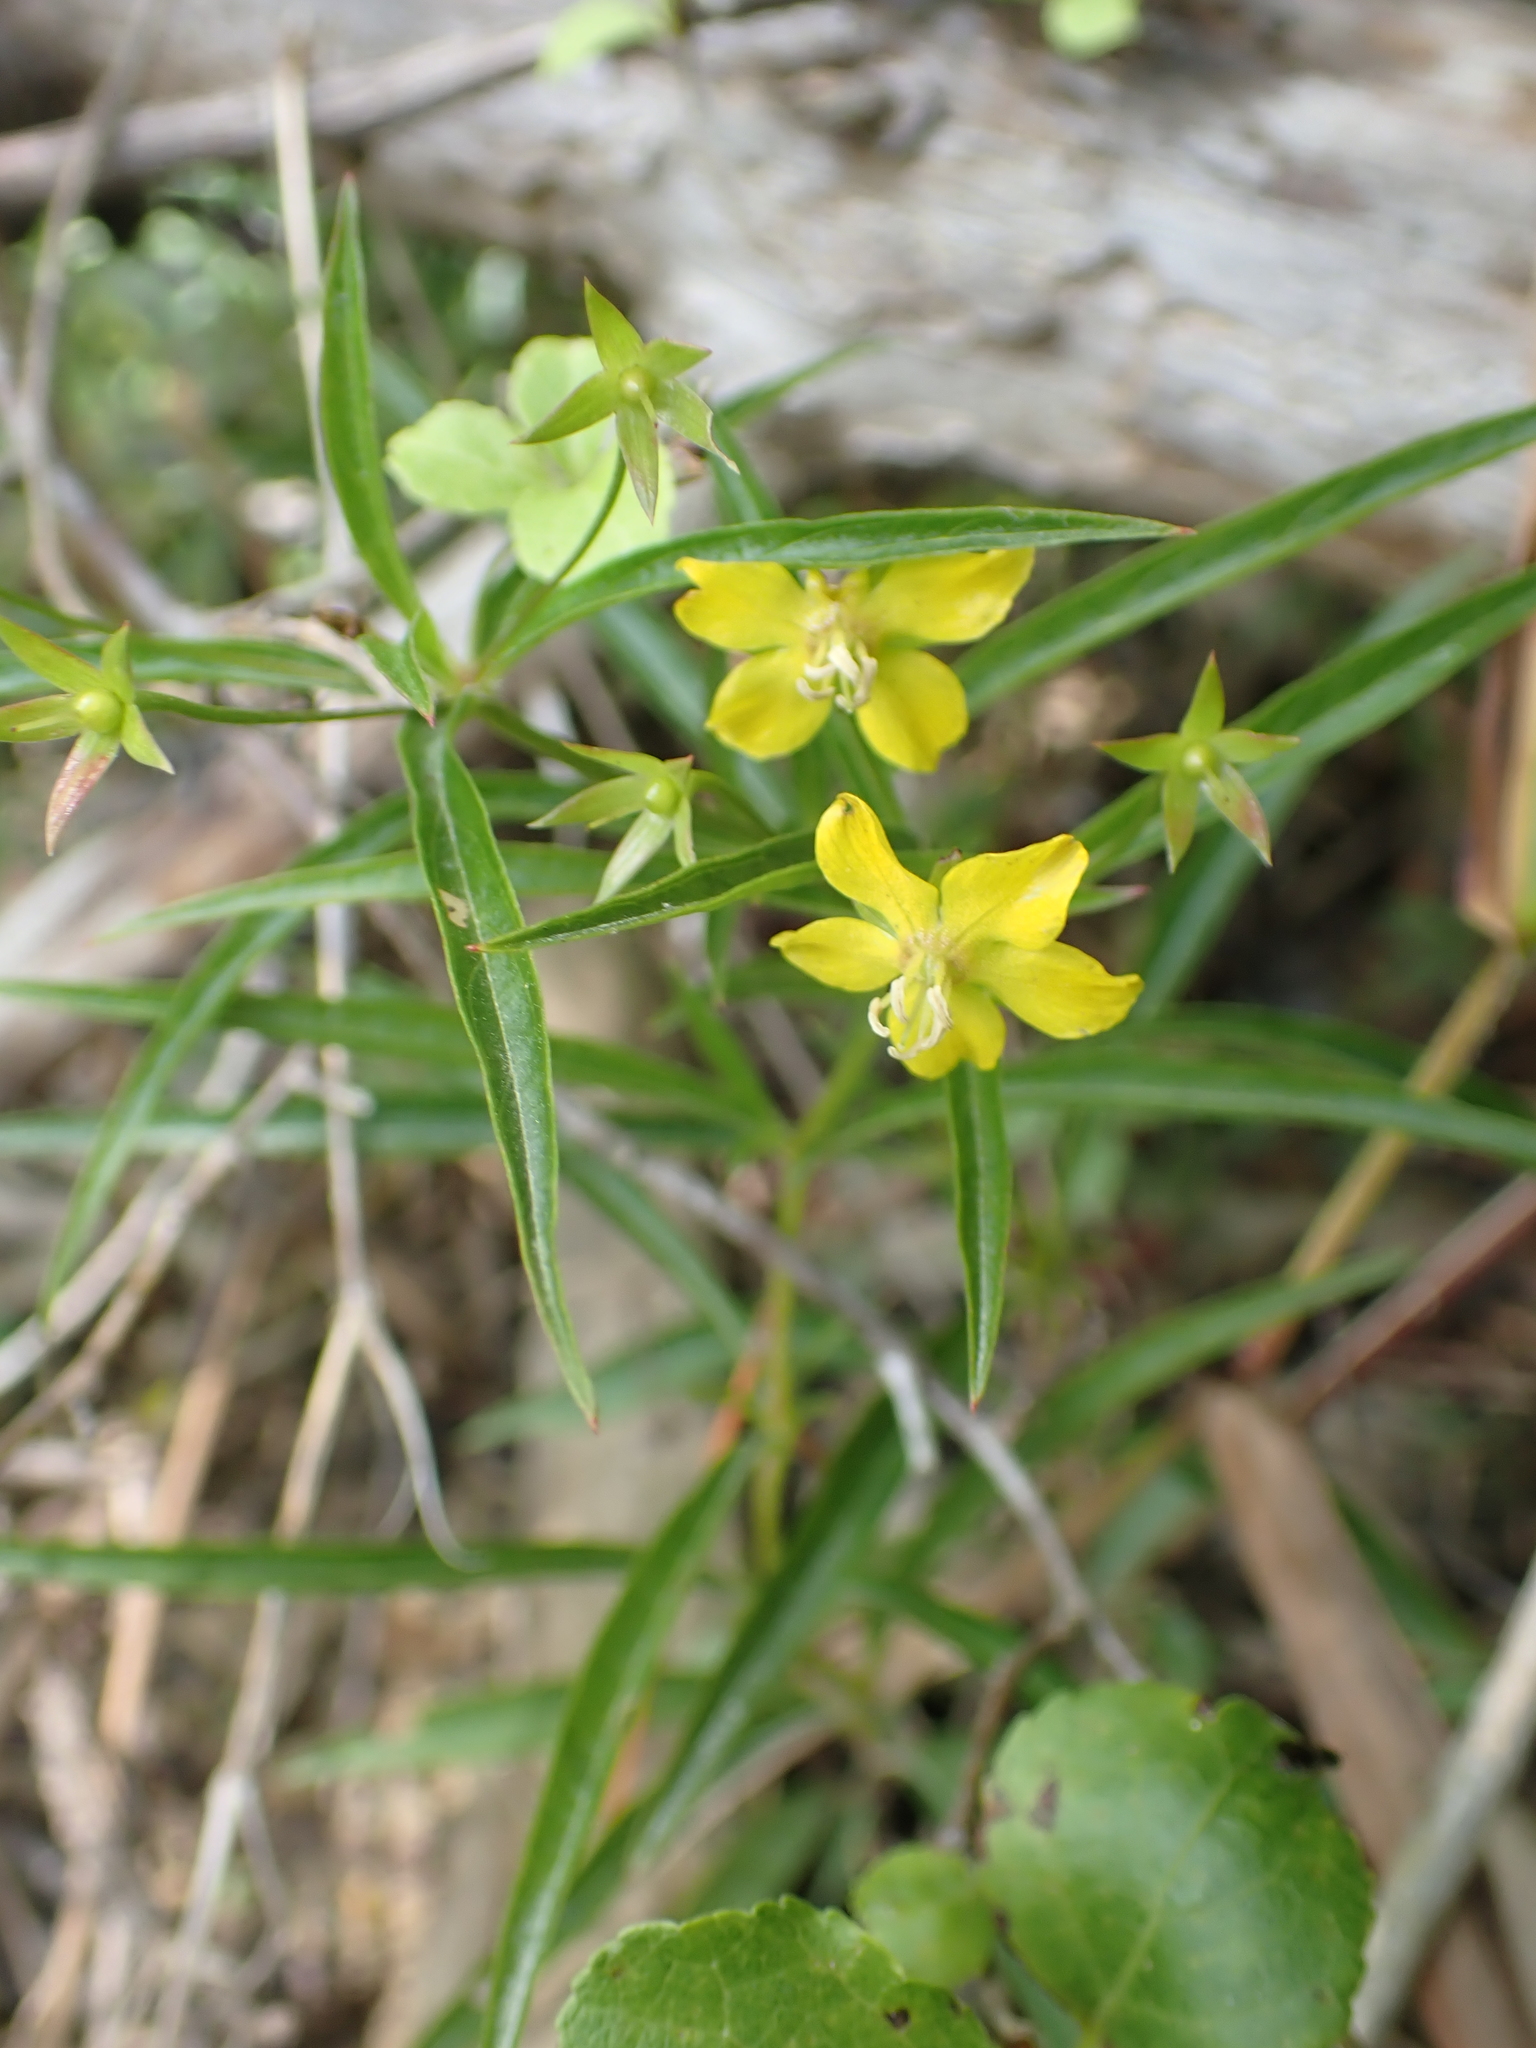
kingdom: Plantae
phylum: Tracheophyta
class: Magnoliopsida
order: Ericales
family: Primulaceae
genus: Lysimachia
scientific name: Lysimachia lanceolata
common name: Lance-leaved loosestrife
